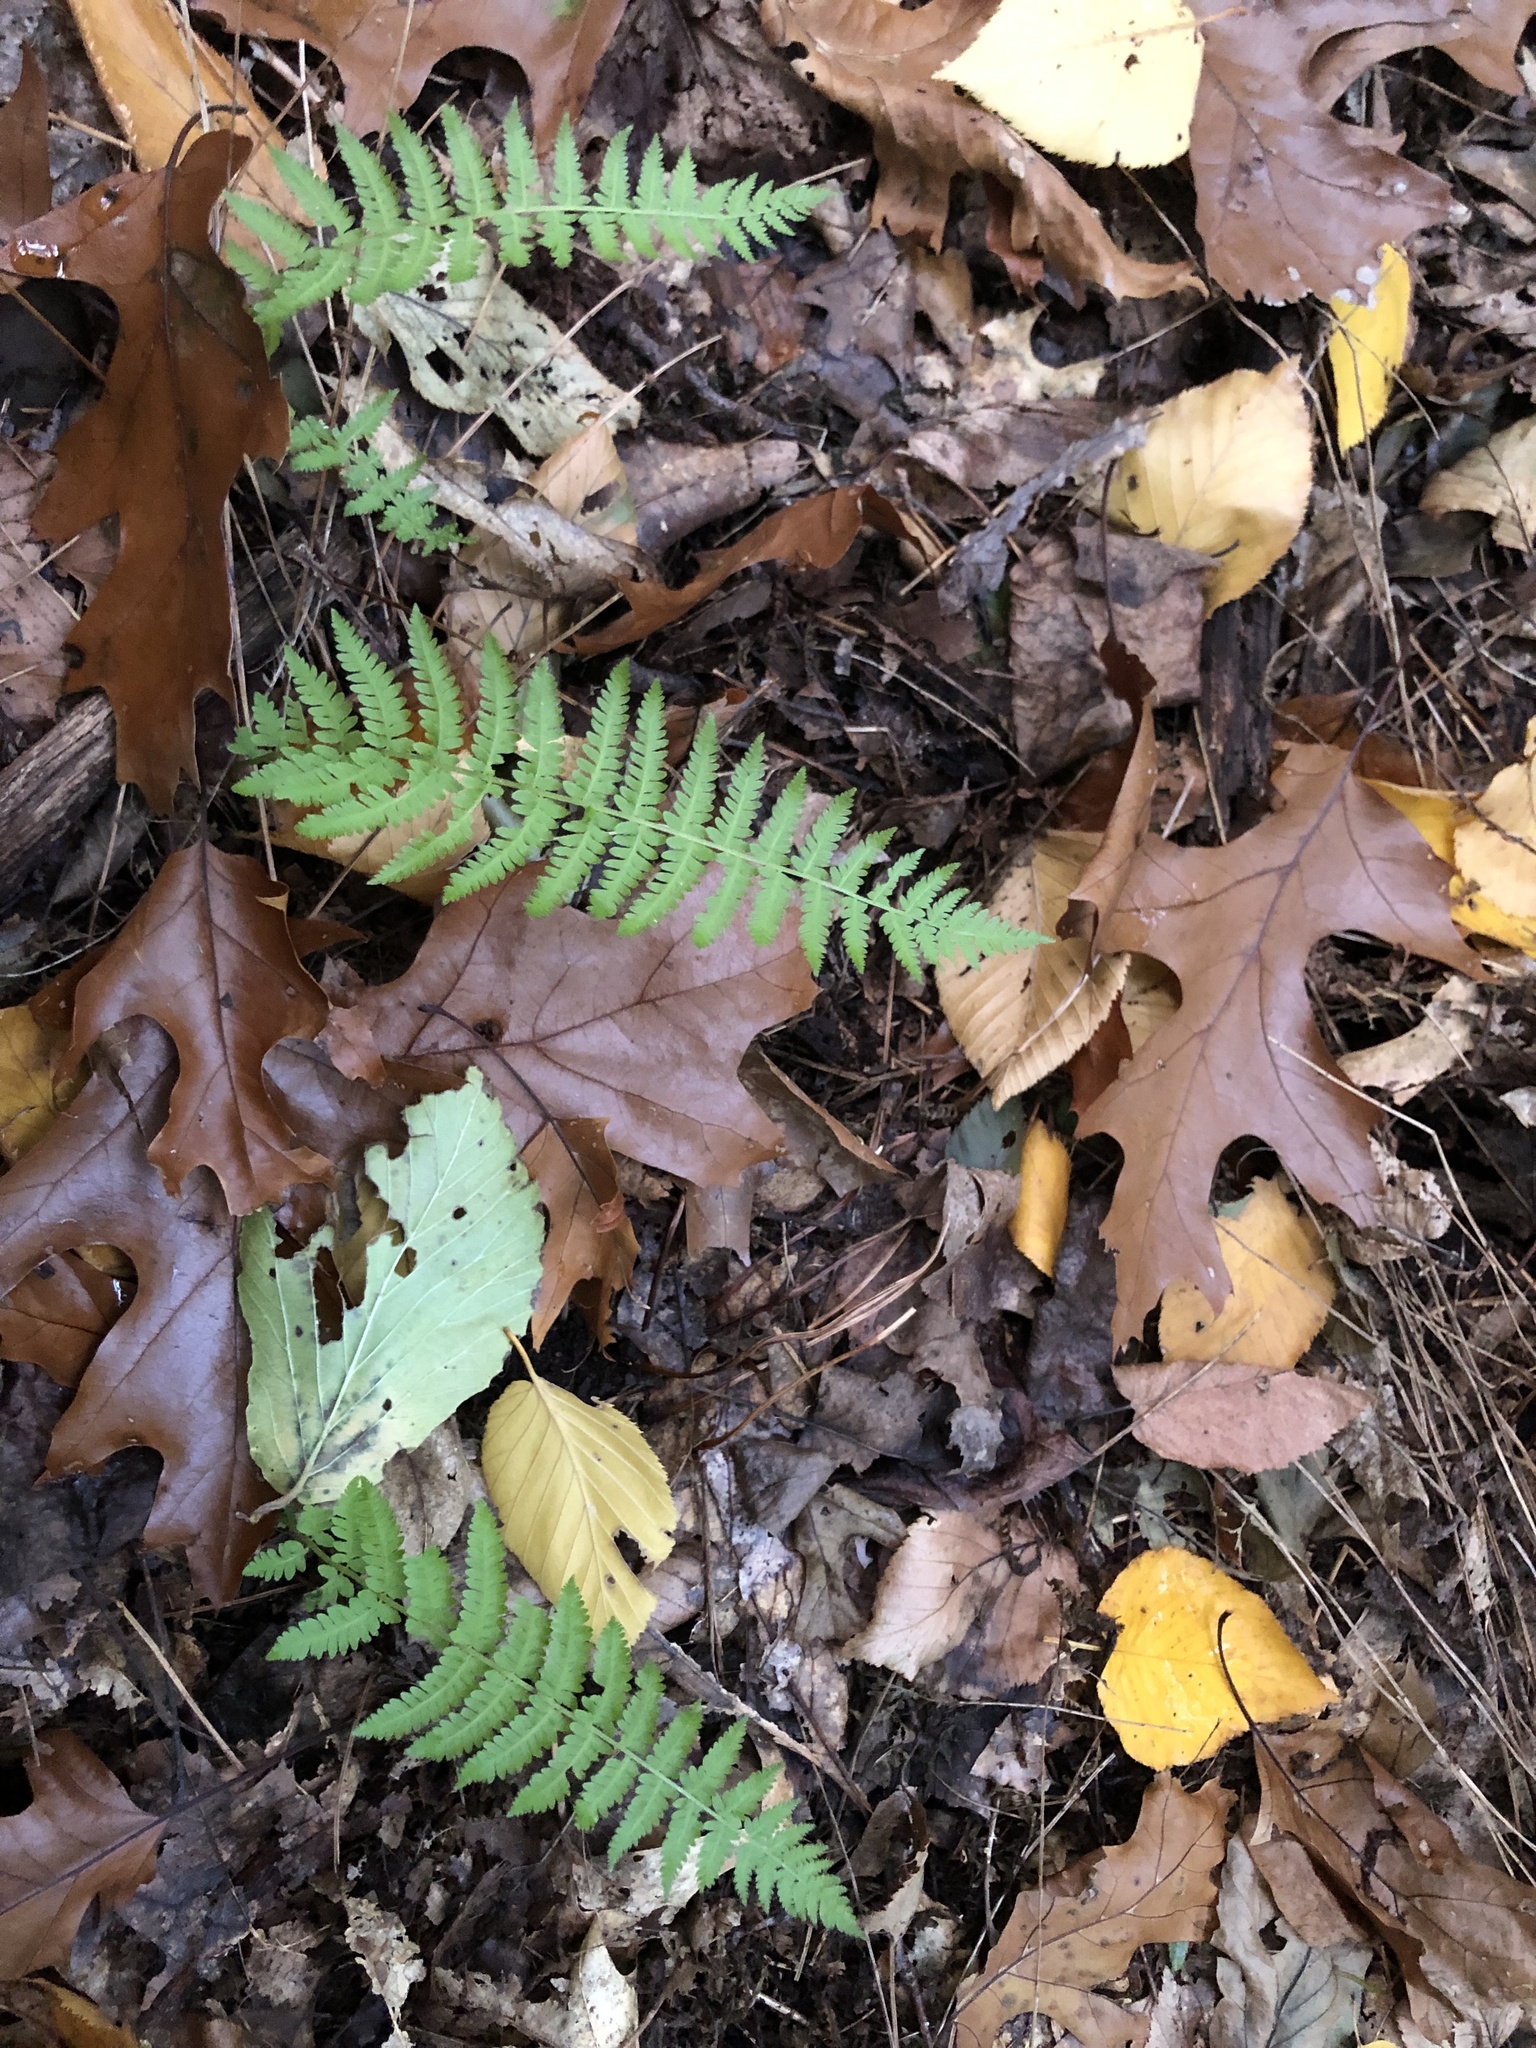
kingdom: Plantae
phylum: Tracheophyta
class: Polypodiopsida
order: Polypodiales
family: Thelypteridaceae
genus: Amauropelta
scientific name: Amauropelta noveboracensis
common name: New york fern
